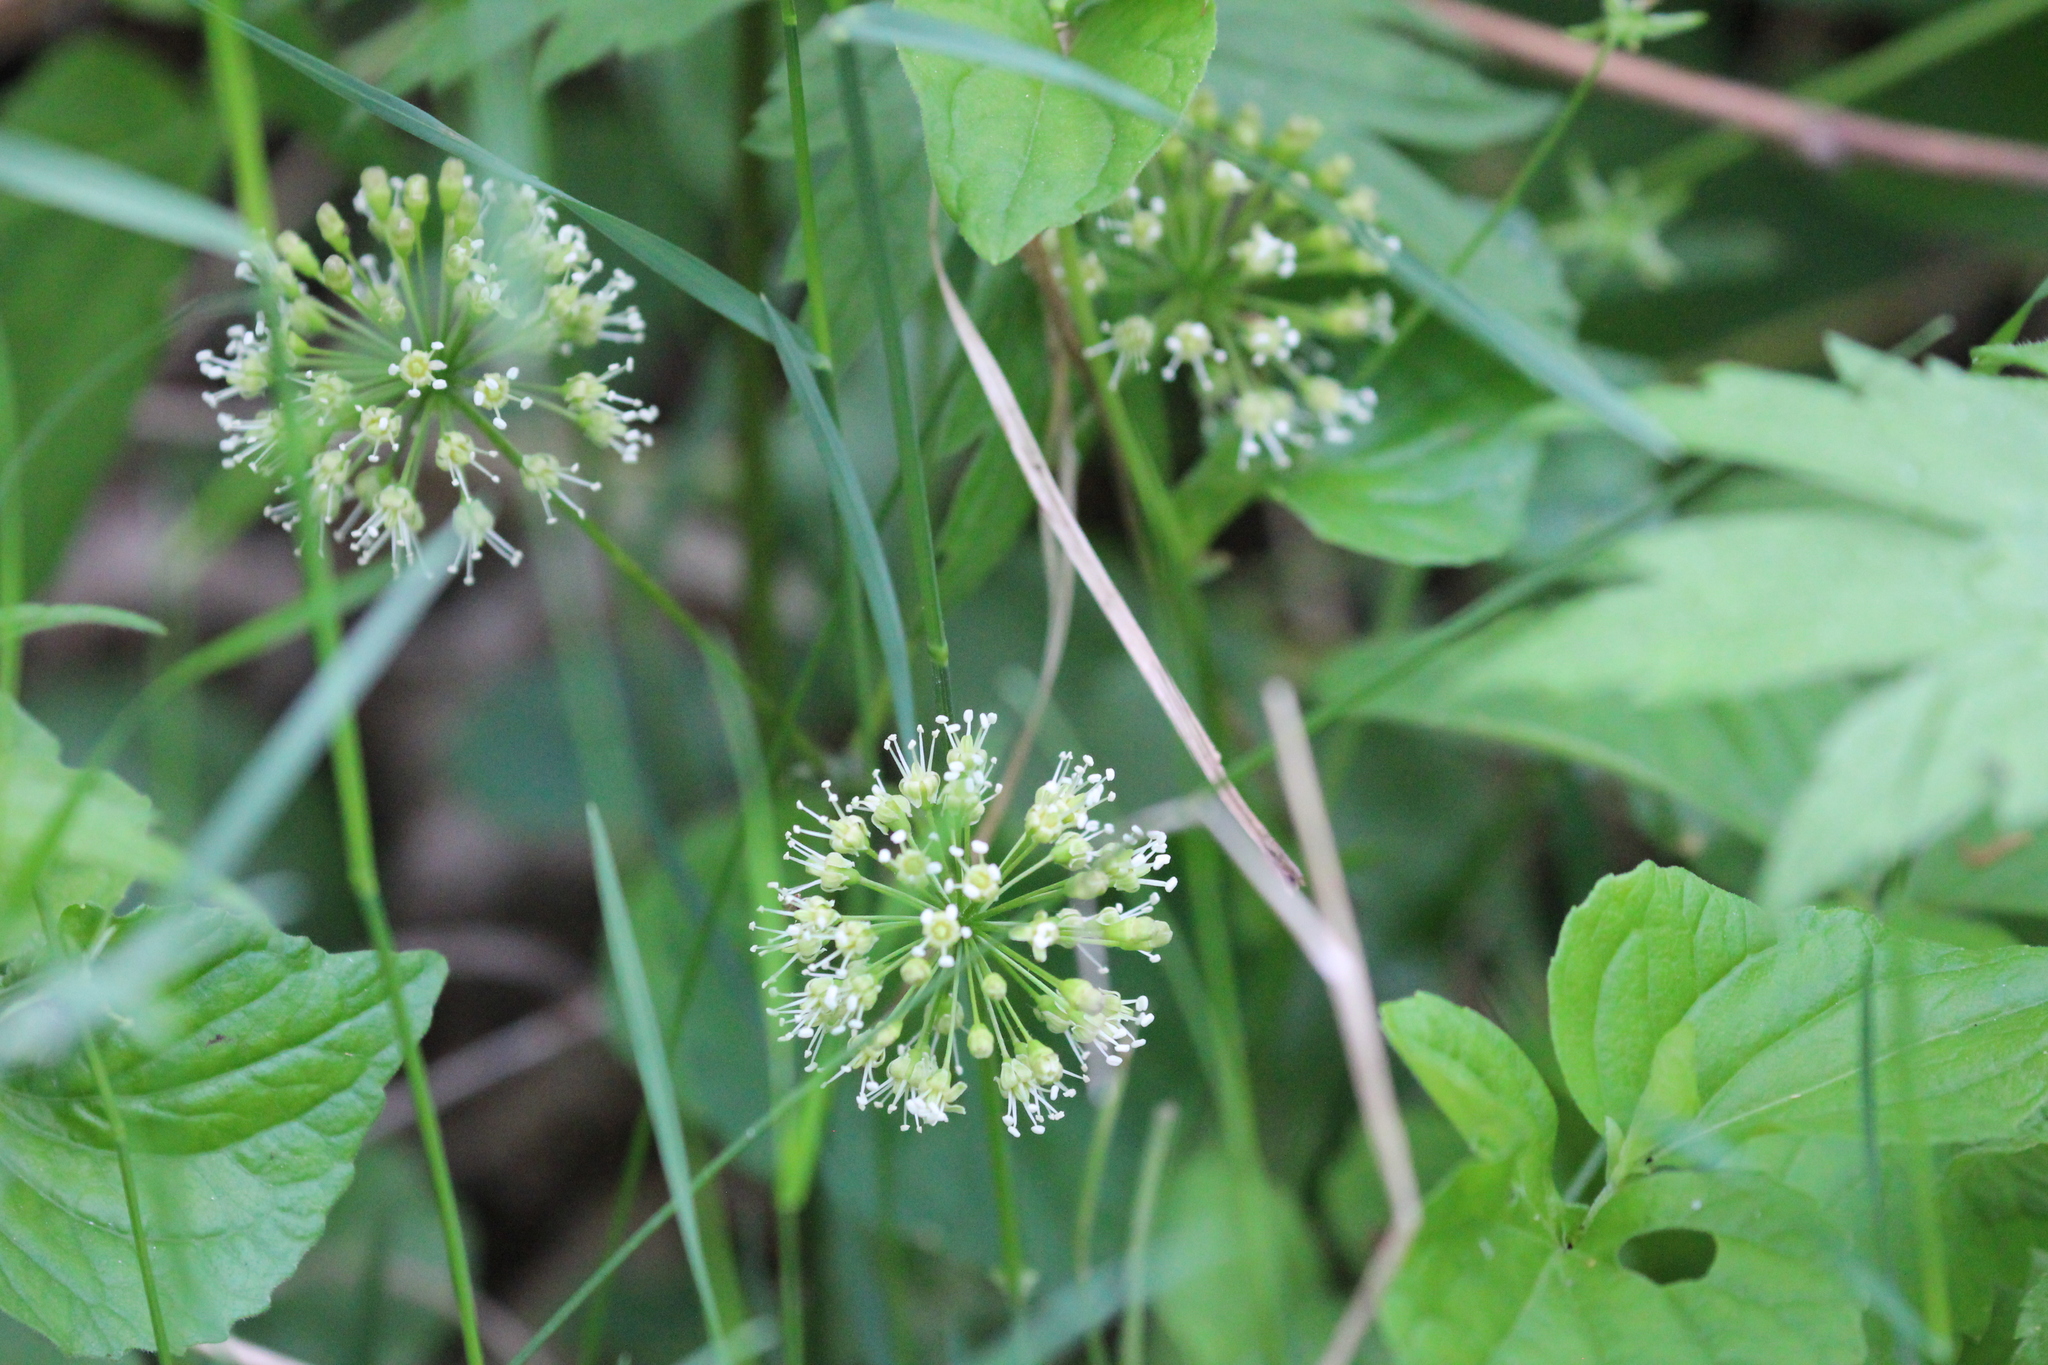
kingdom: Plantae
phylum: Tracheophyta
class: Magnoliopsida
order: Apiales
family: Araliaceae
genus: Aralia
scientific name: Aralia nudicaulis
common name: Wild sarsaparilla
